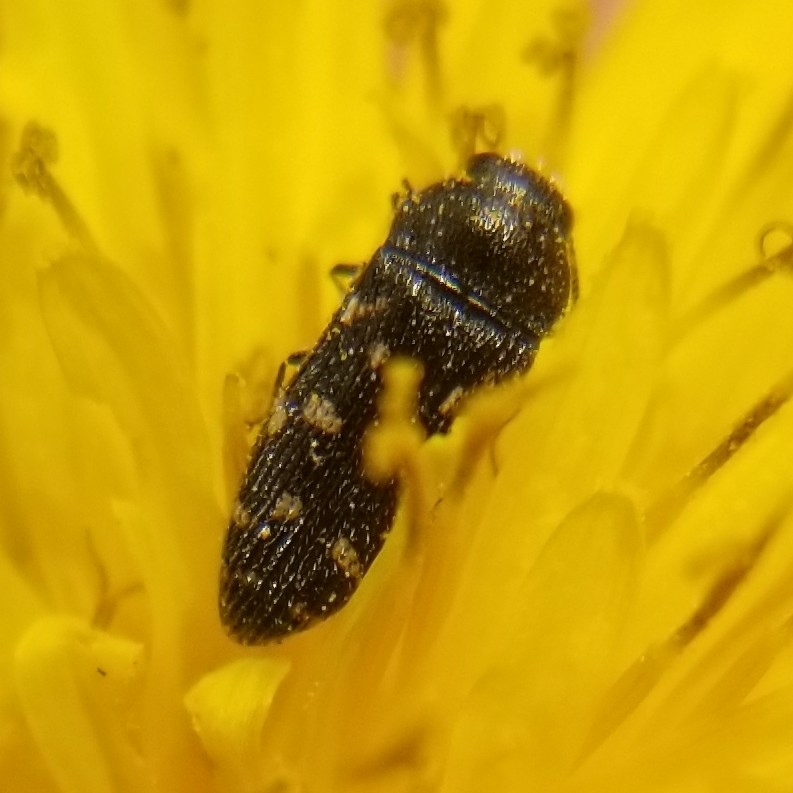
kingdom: Animalia
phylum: Arthropoda
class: Insecta
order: Coleoptera
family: Buprestidae
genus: Acmaeodera
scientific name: Acmaeodera tubulus
